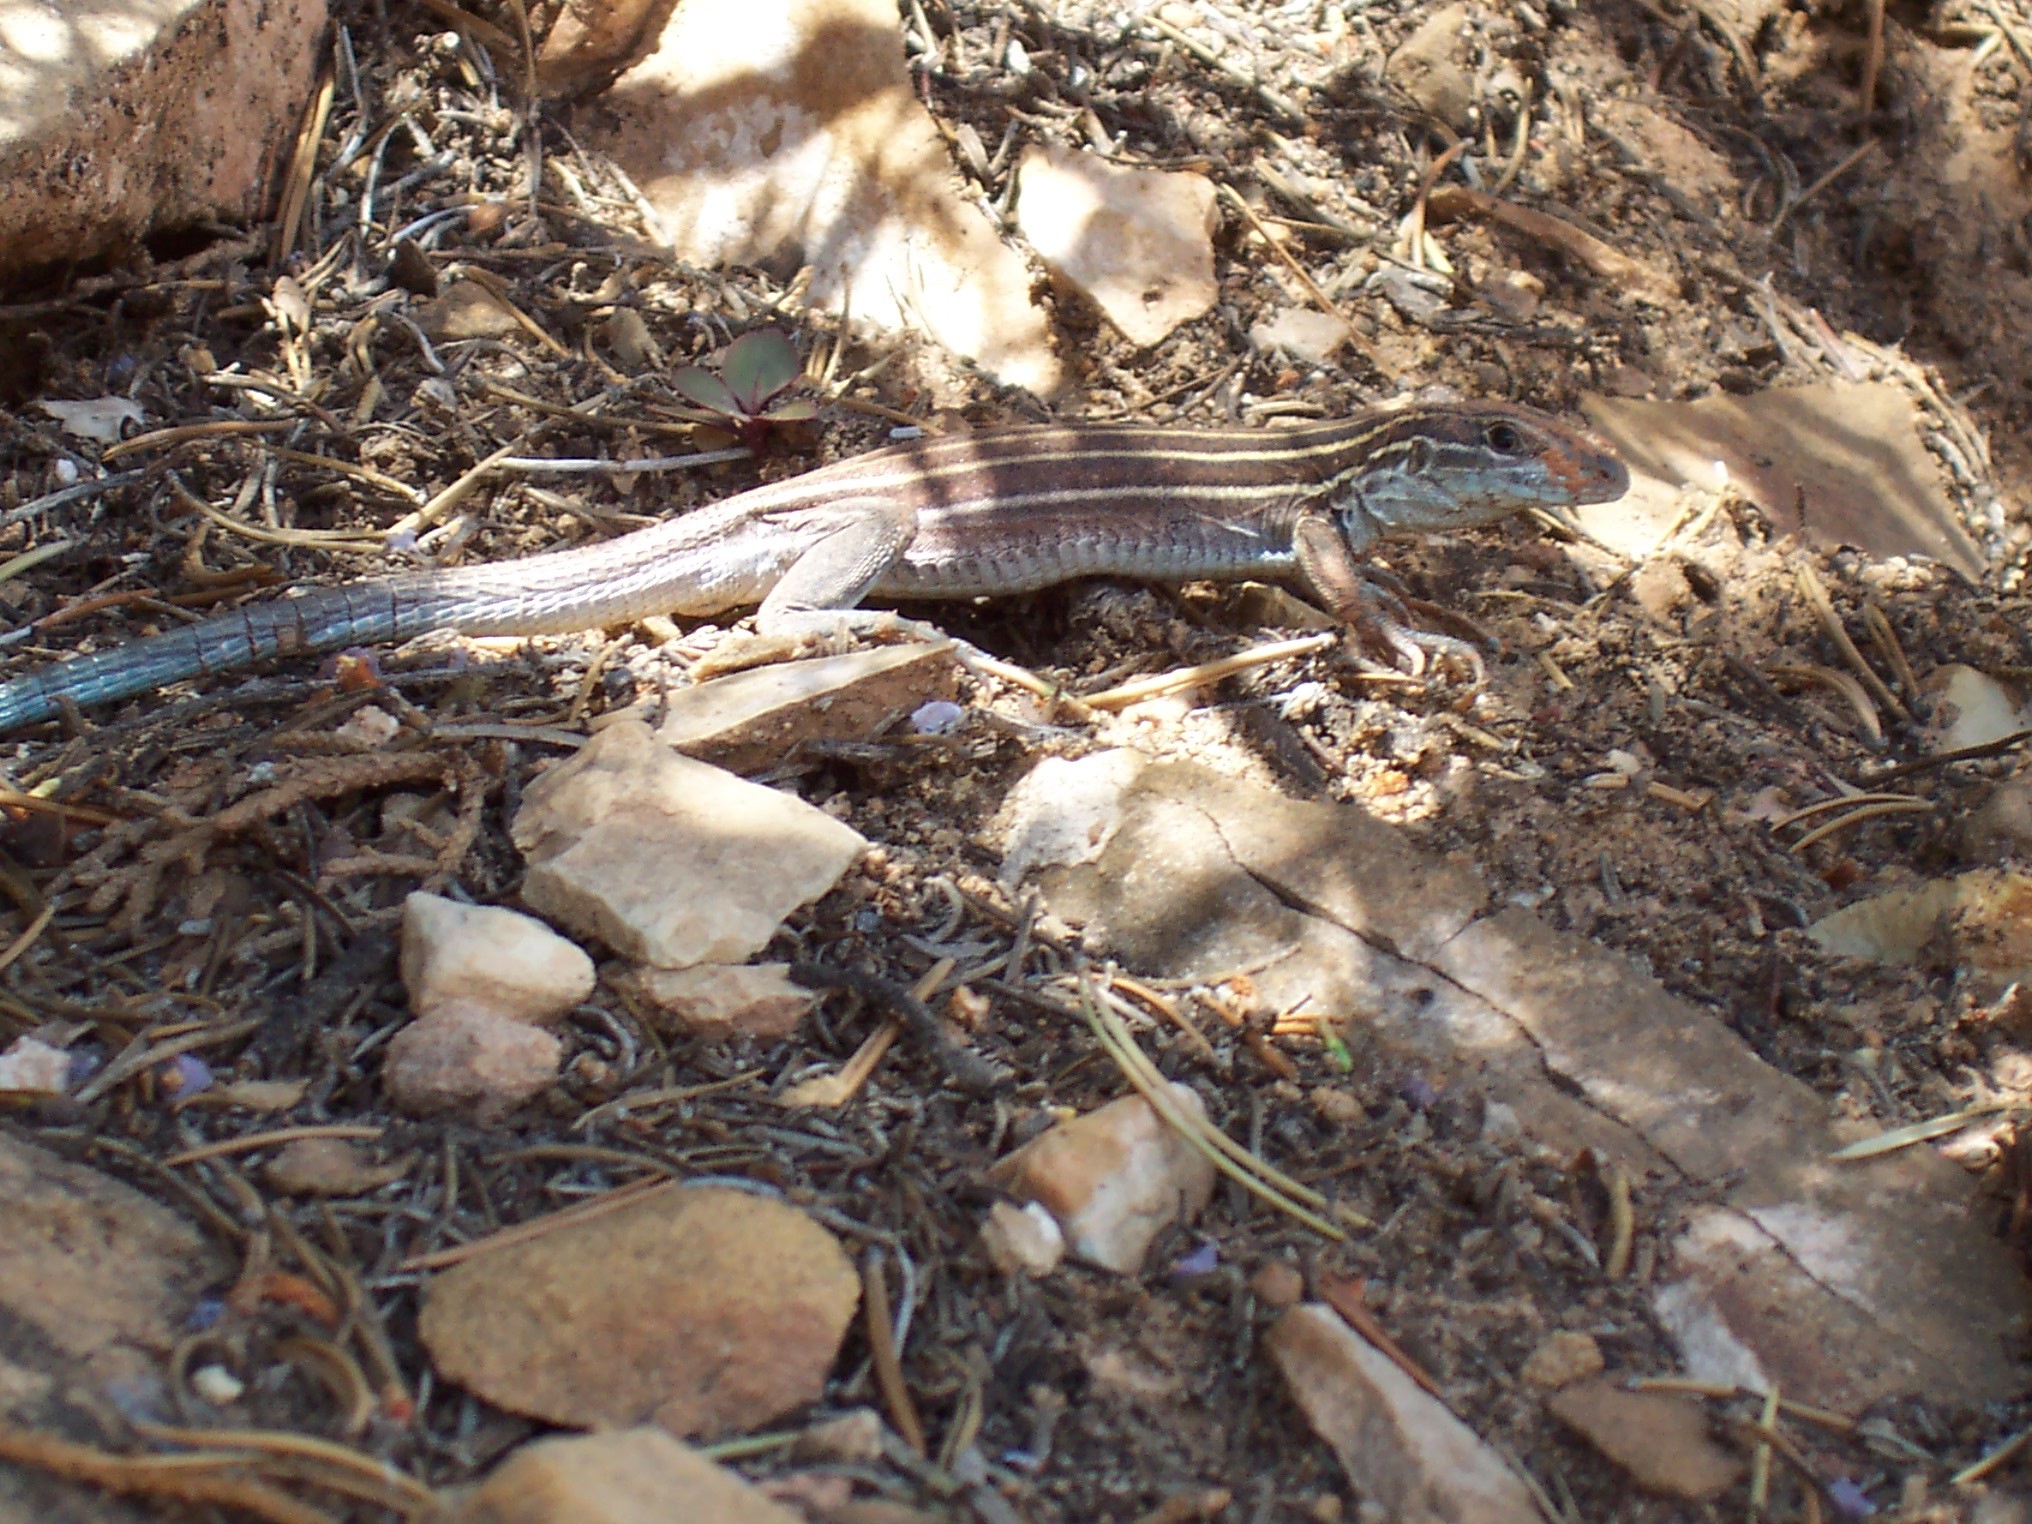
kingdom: Animalia
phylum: Chordata
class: Squamata
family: Teiidae
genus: Aspidoscelis
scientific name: Aspidoscelis velox
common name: Plateau striped whiptail
